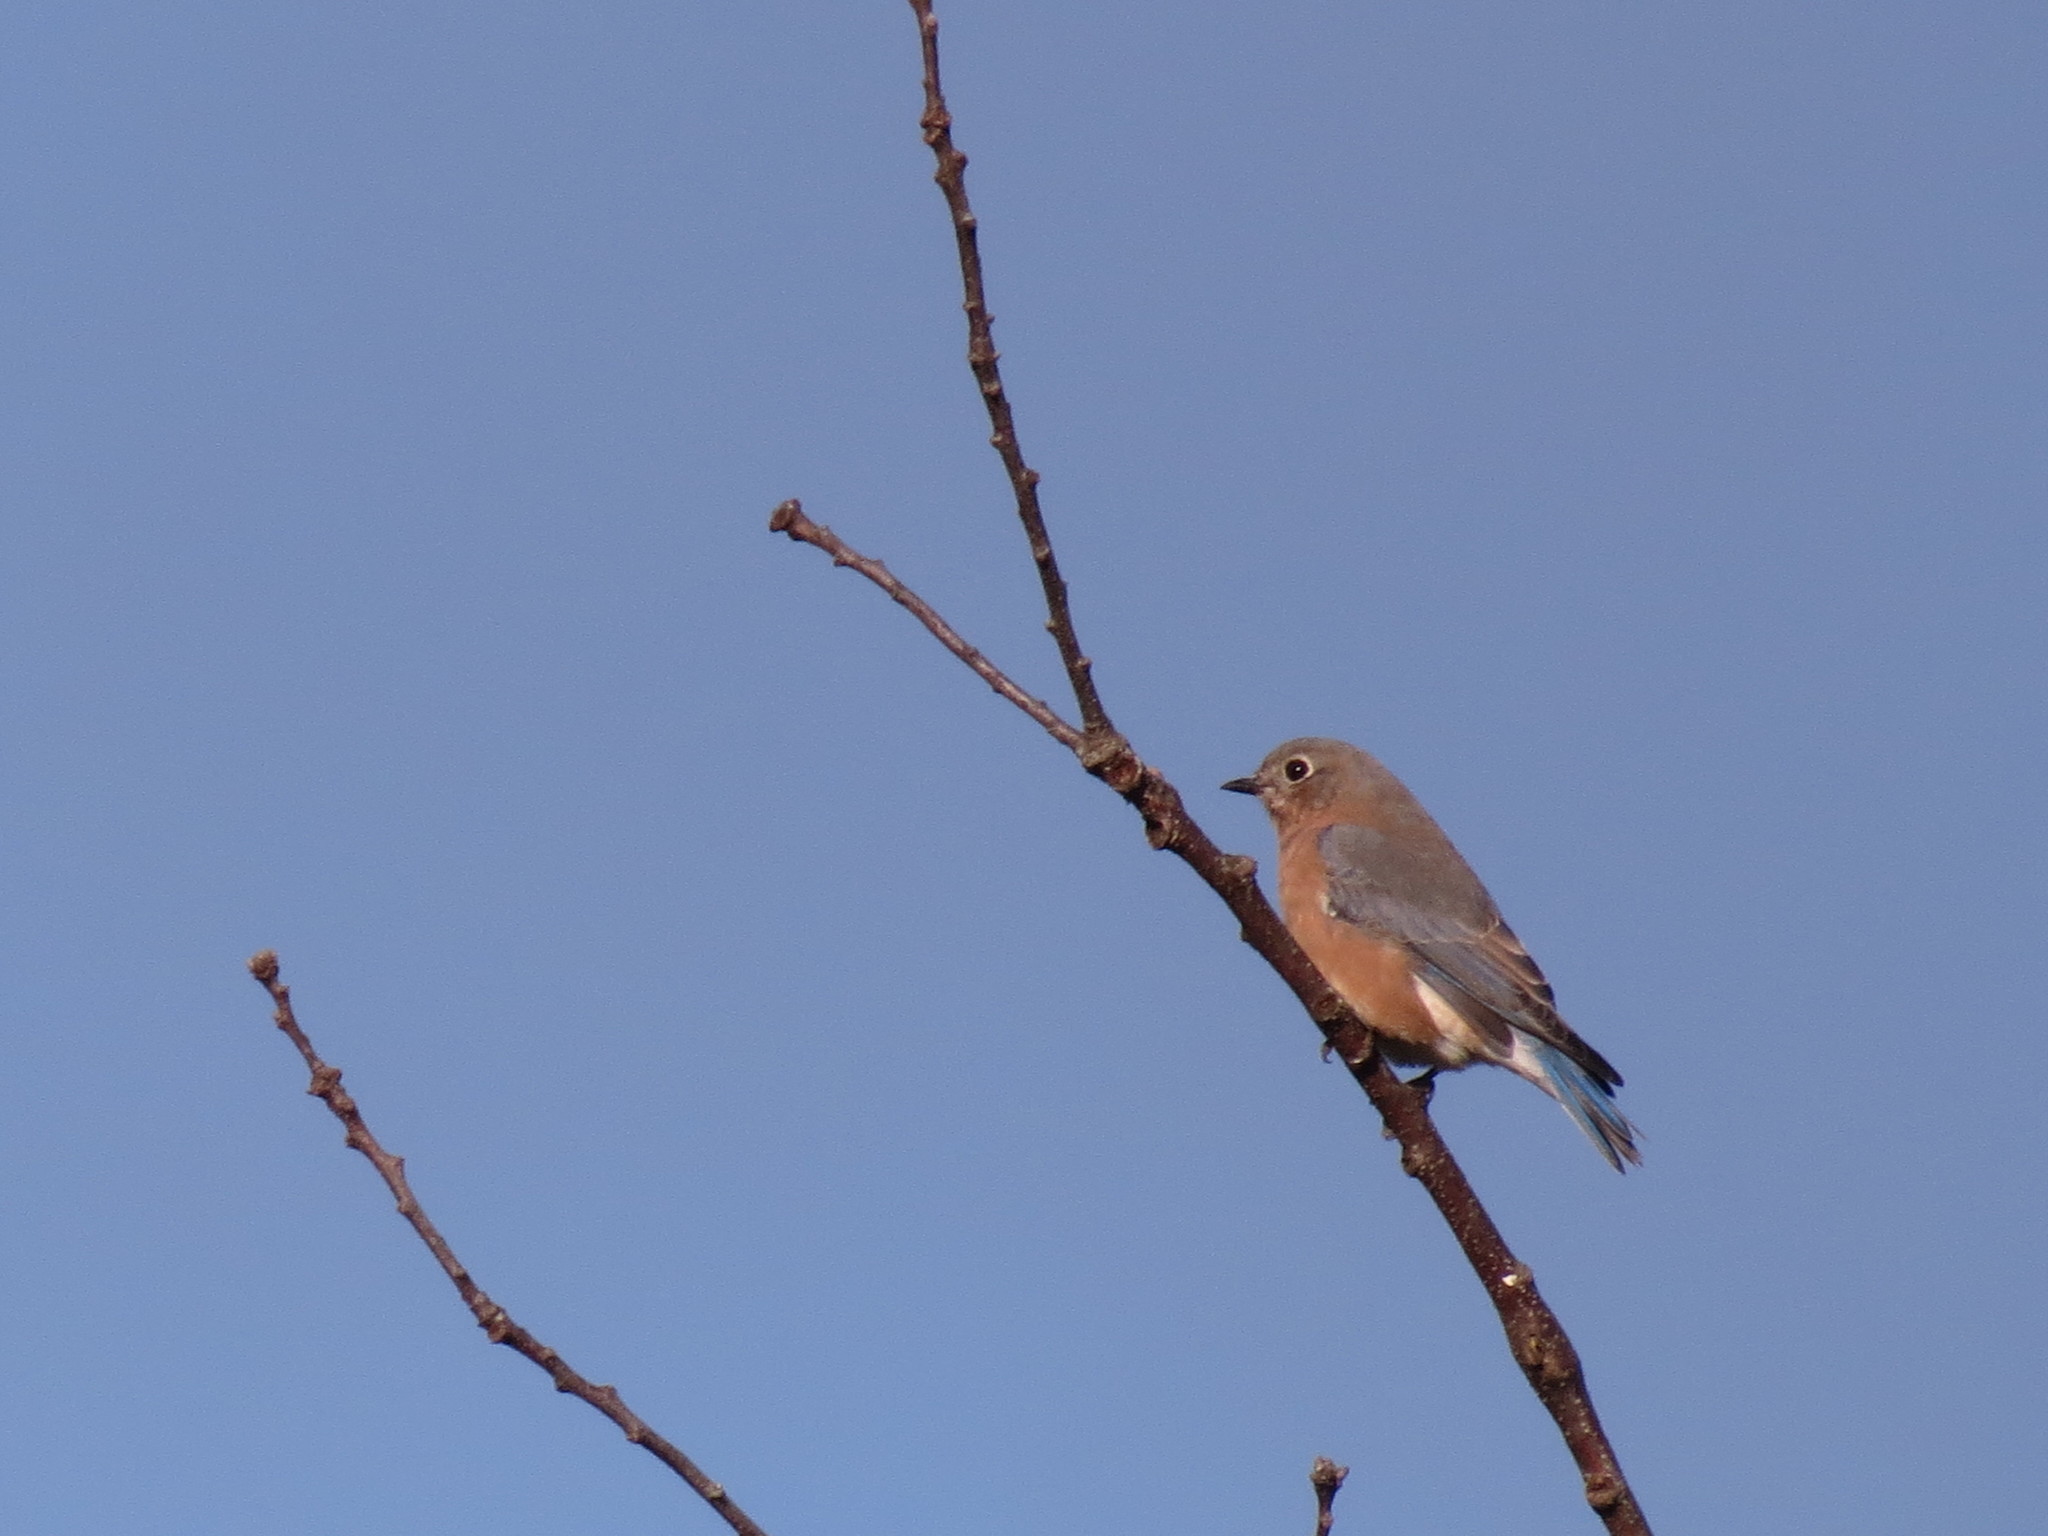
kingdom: Animalia
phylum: Chordata
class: Aves
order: Passeriformes
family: Turdidae
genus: Sialia
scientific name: Sialia sialis
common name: Eastern bluebird
